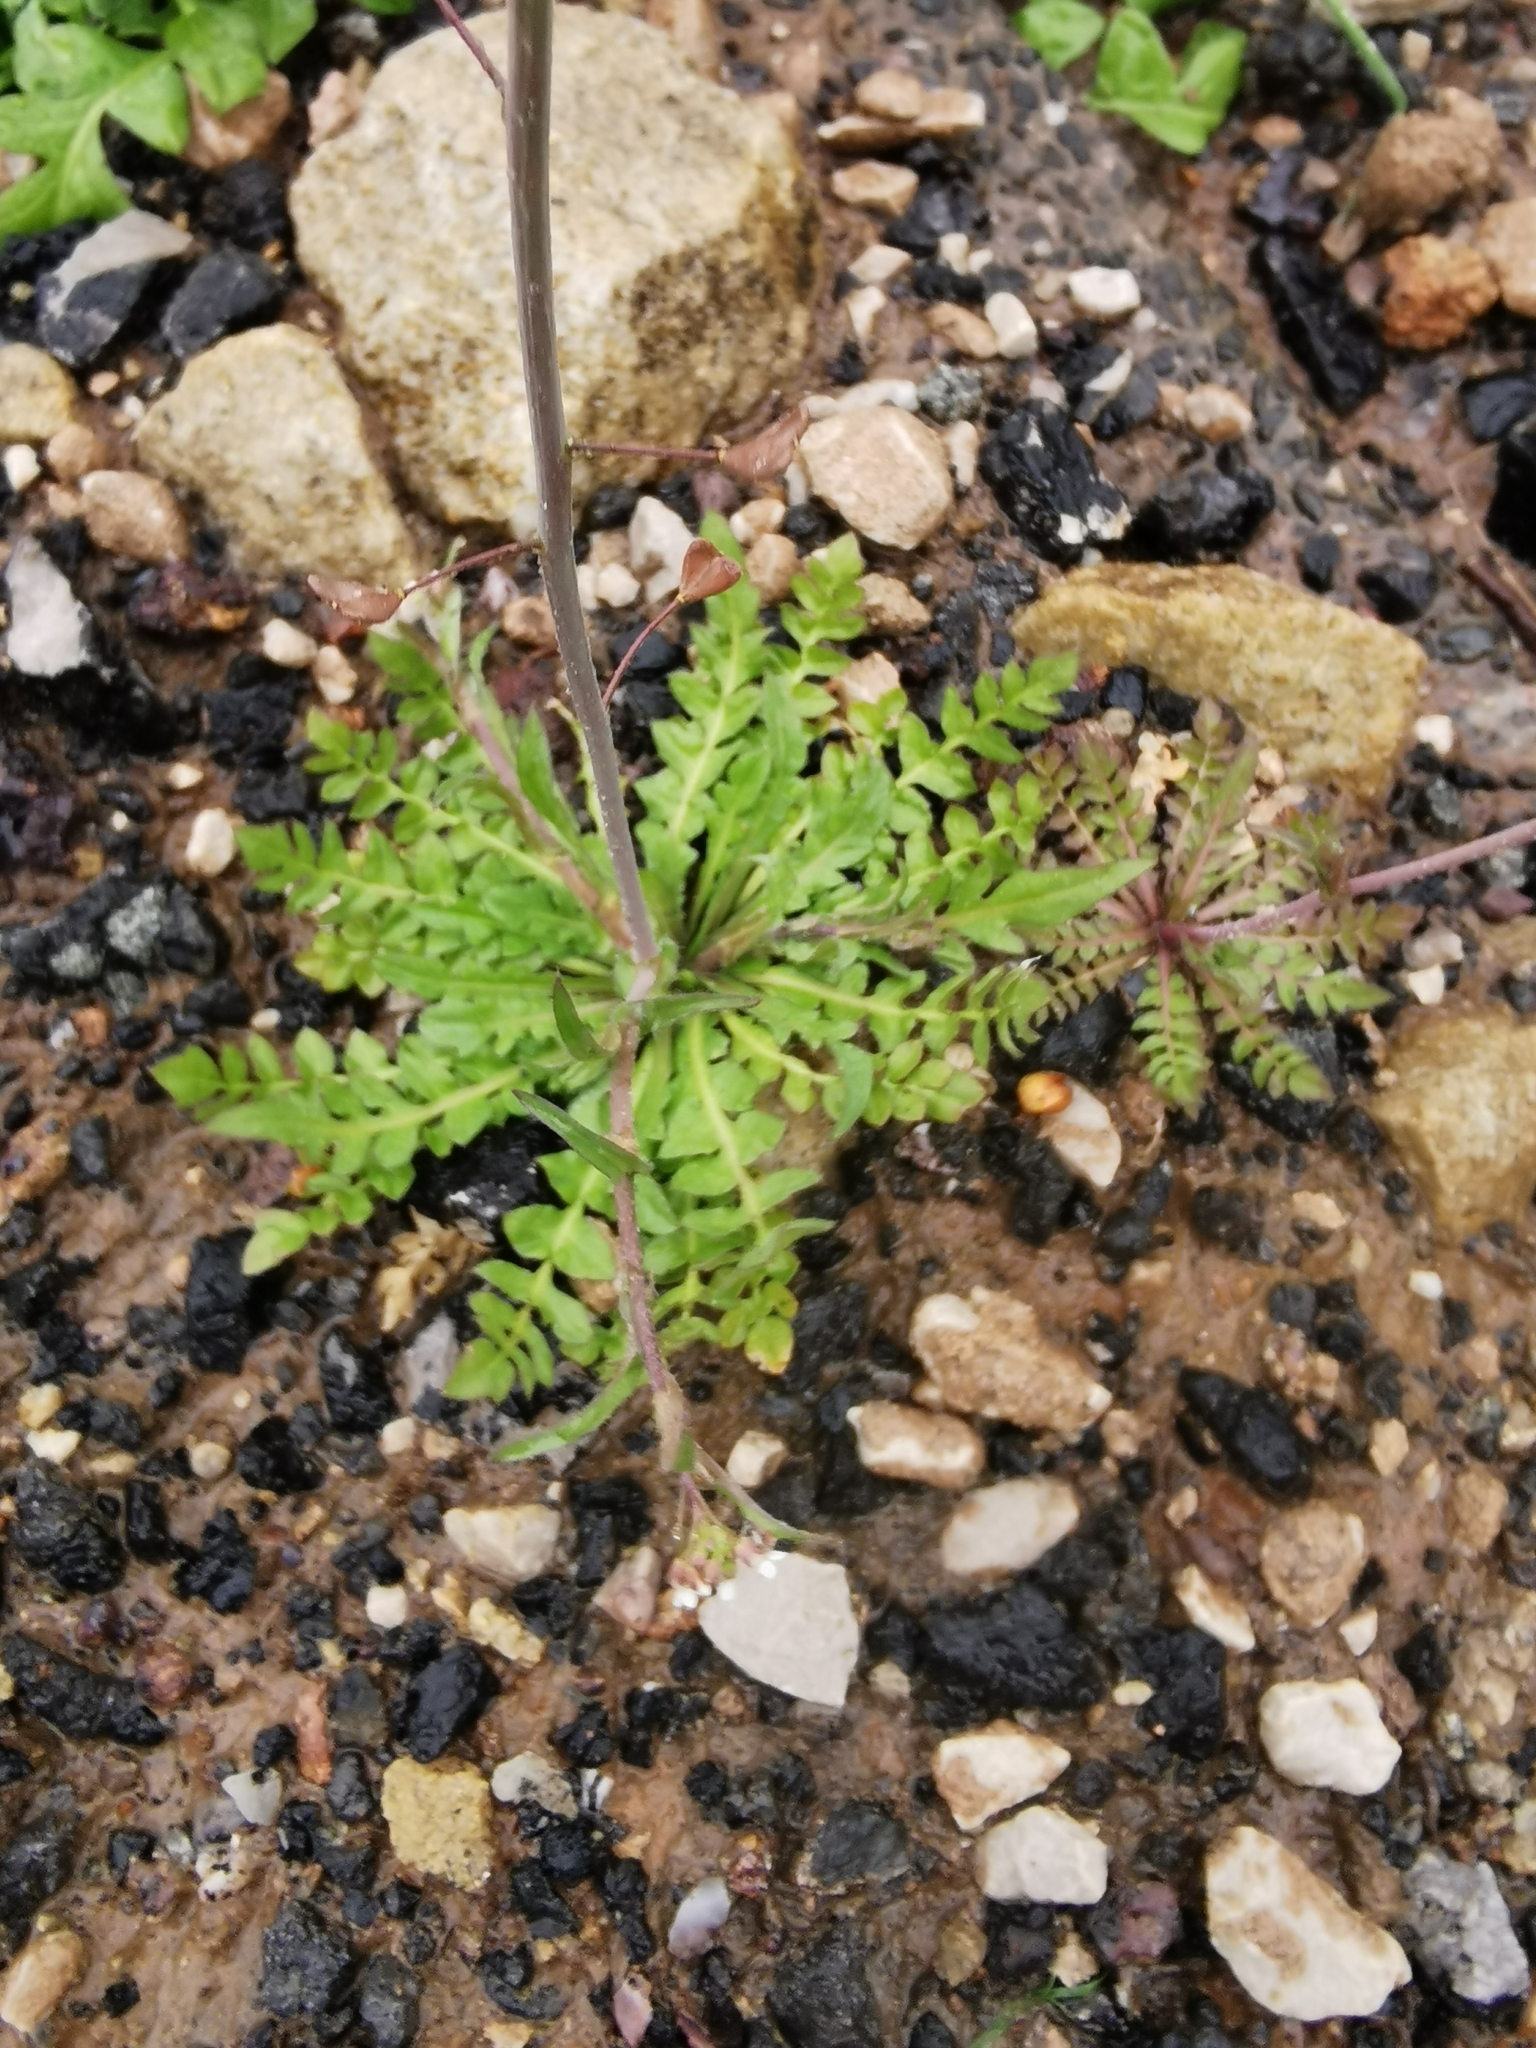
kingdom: Plantae
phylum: Tracheophyta
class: Magnoliopsida
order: Brassicales
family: Brassicaceae
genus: Capsella
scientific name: Capsella bursa-pastoris
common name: Shepherd's purse
